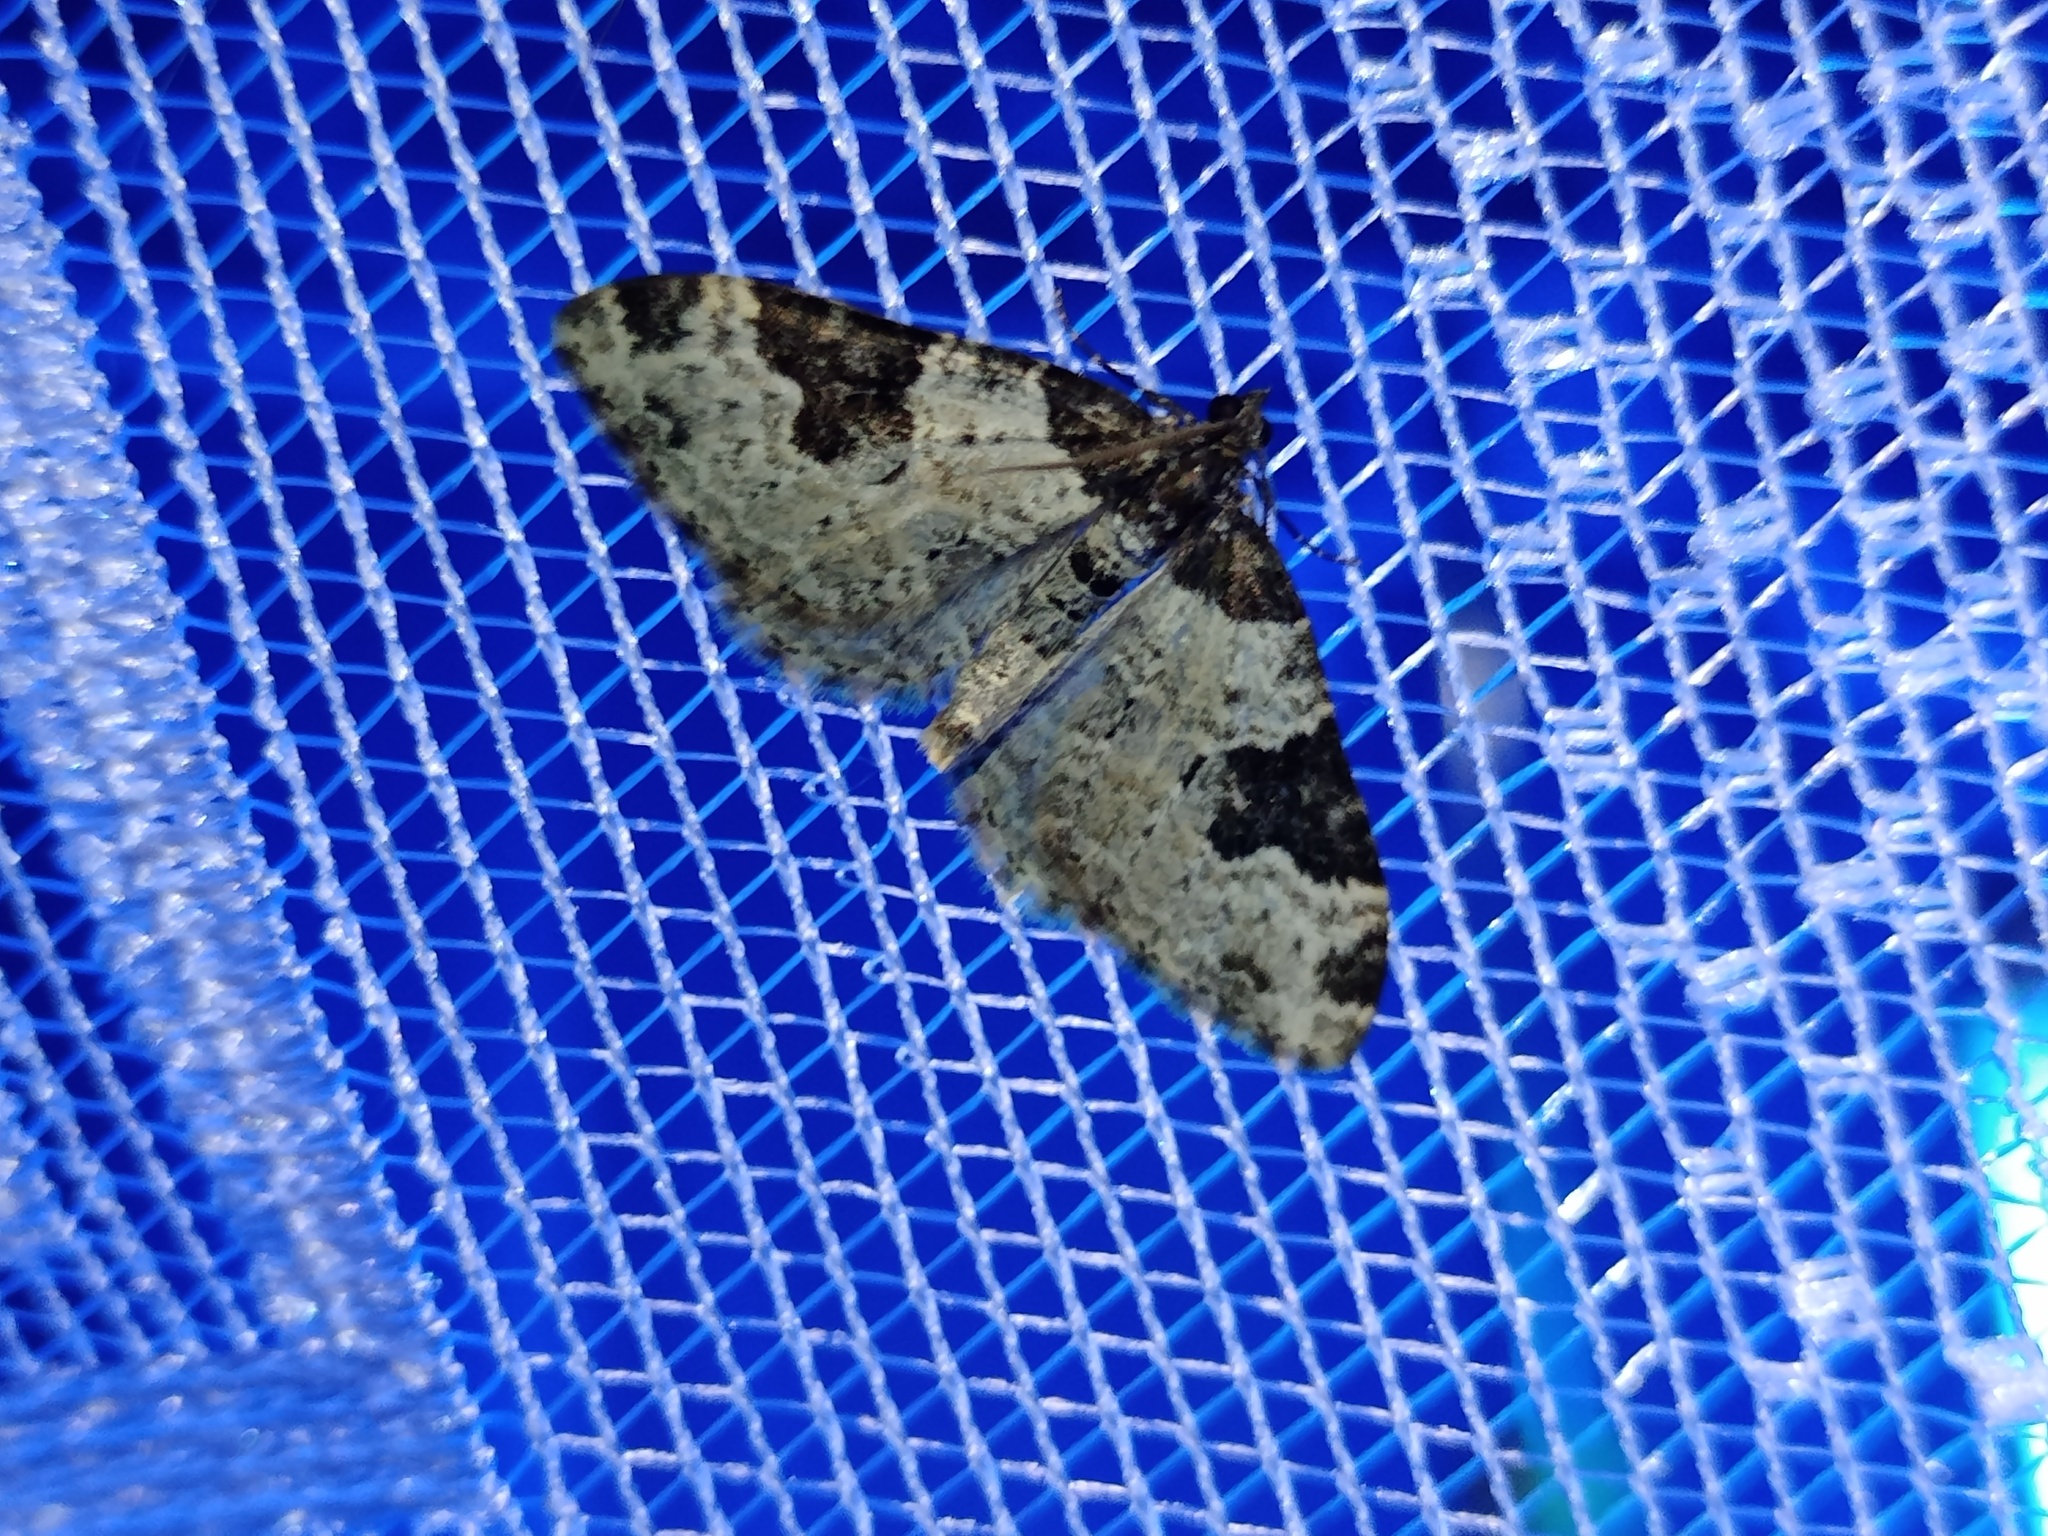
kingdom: Animalia
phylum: Arthropoda
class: Insecta
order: Lepidoptera
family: Geometridae
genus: Xanthorhoe
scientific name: Xanthorhoe fluctuata
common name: Garden carpet
